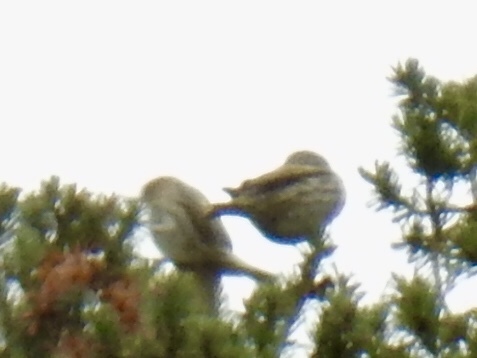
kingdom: Animalia
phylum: Chordata
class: Aves
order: Passeriformes
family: Fringillidae
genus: Spinus
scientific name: Spinus pinus
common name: Pine siskin
